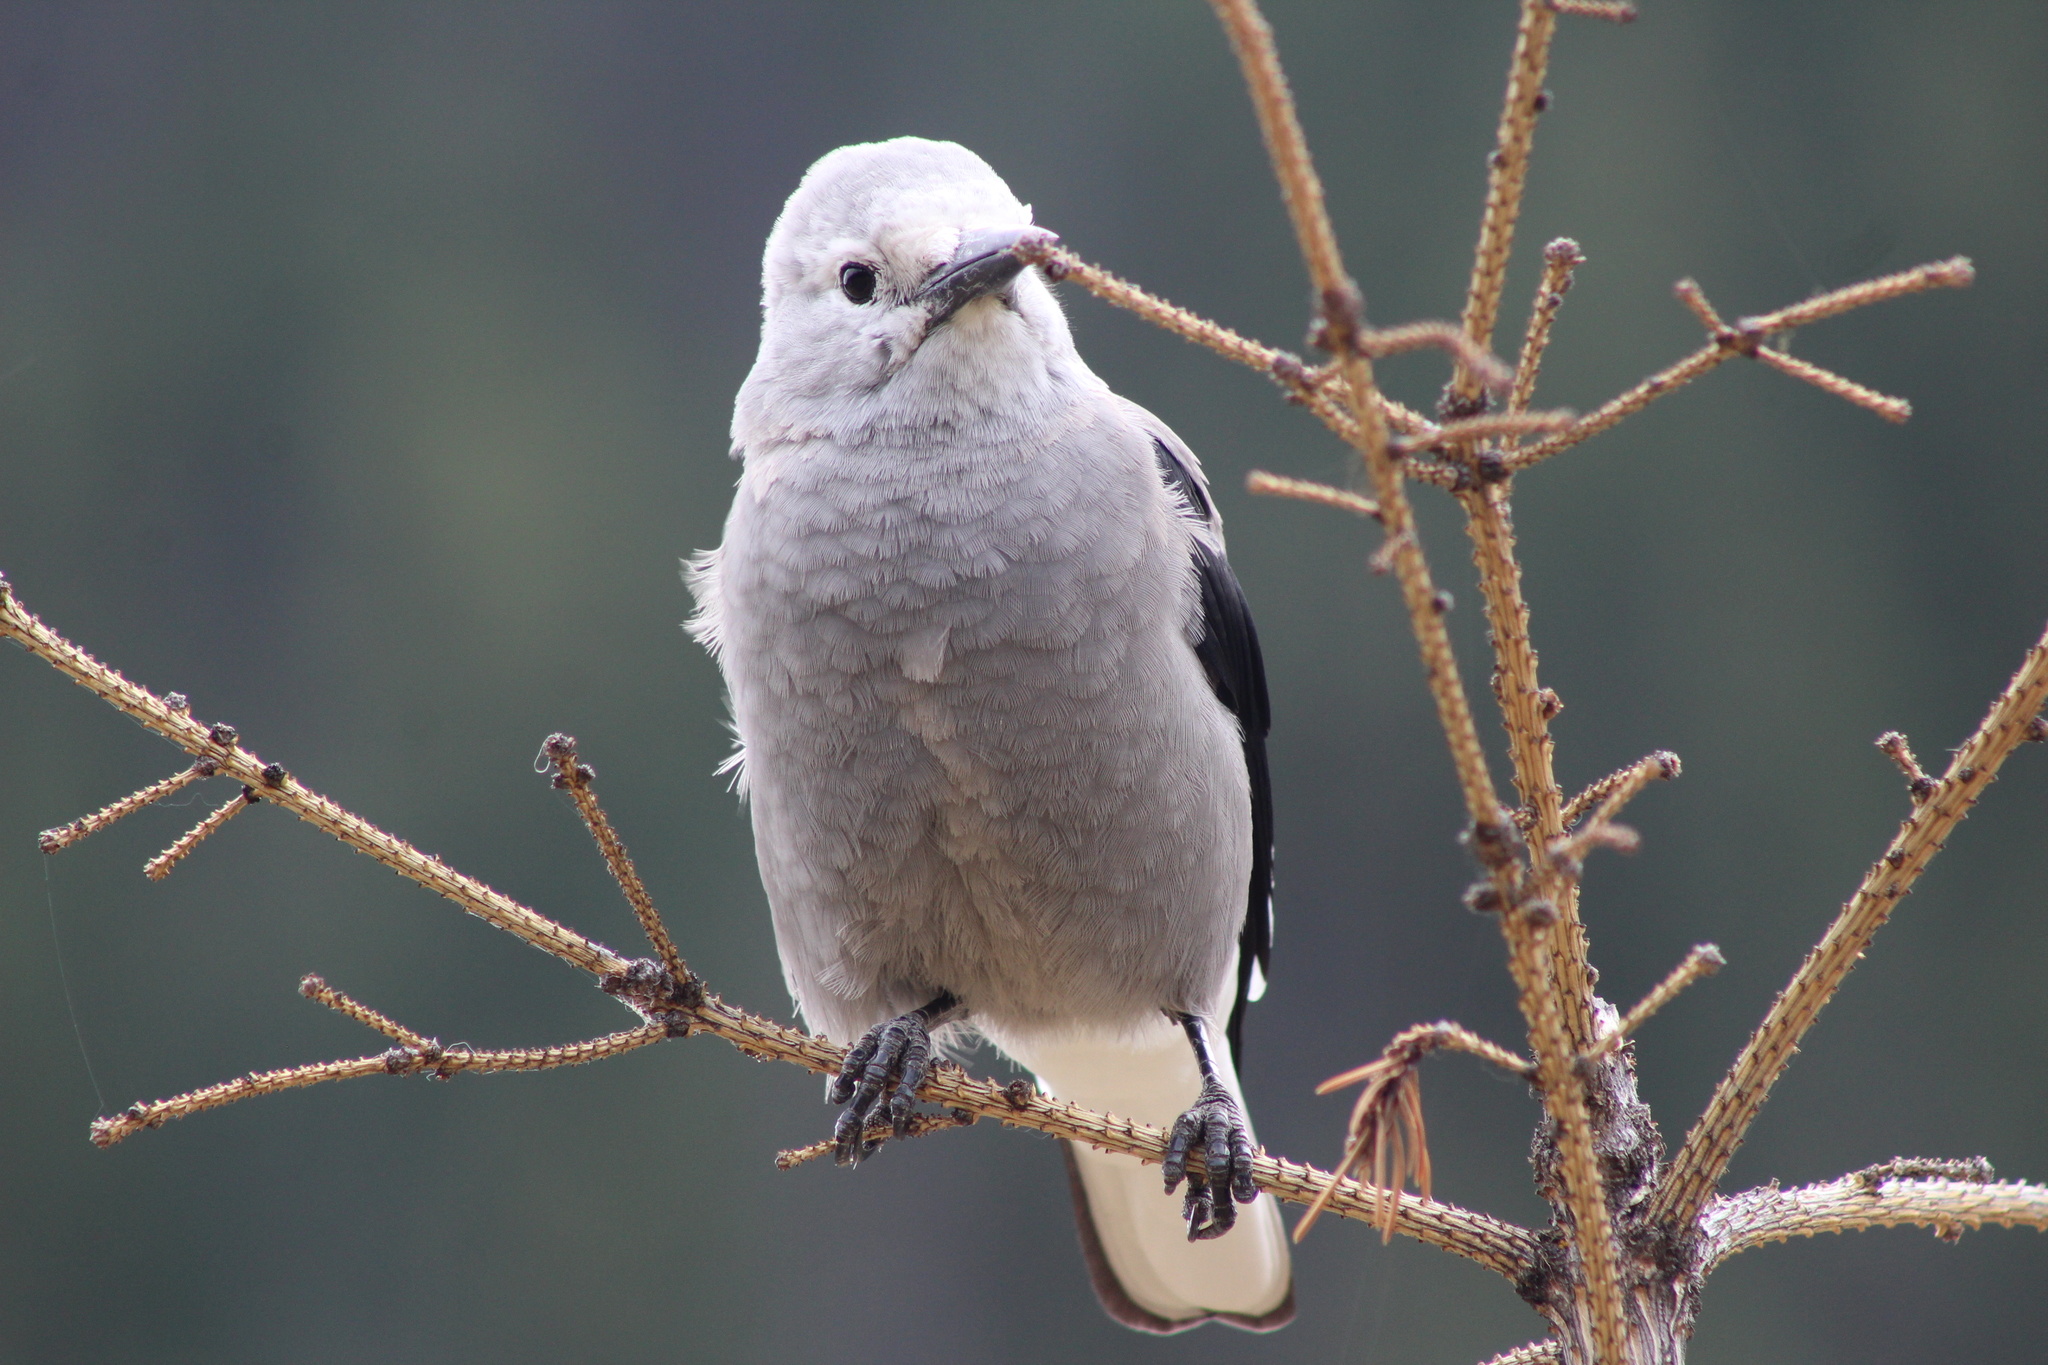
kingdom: Animalia
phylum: Chordata
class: Aves
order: Passeriformes
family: Corvidae
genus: Nucifraga
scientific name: Nucifraga columbiana
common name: Clark's nutcracker
